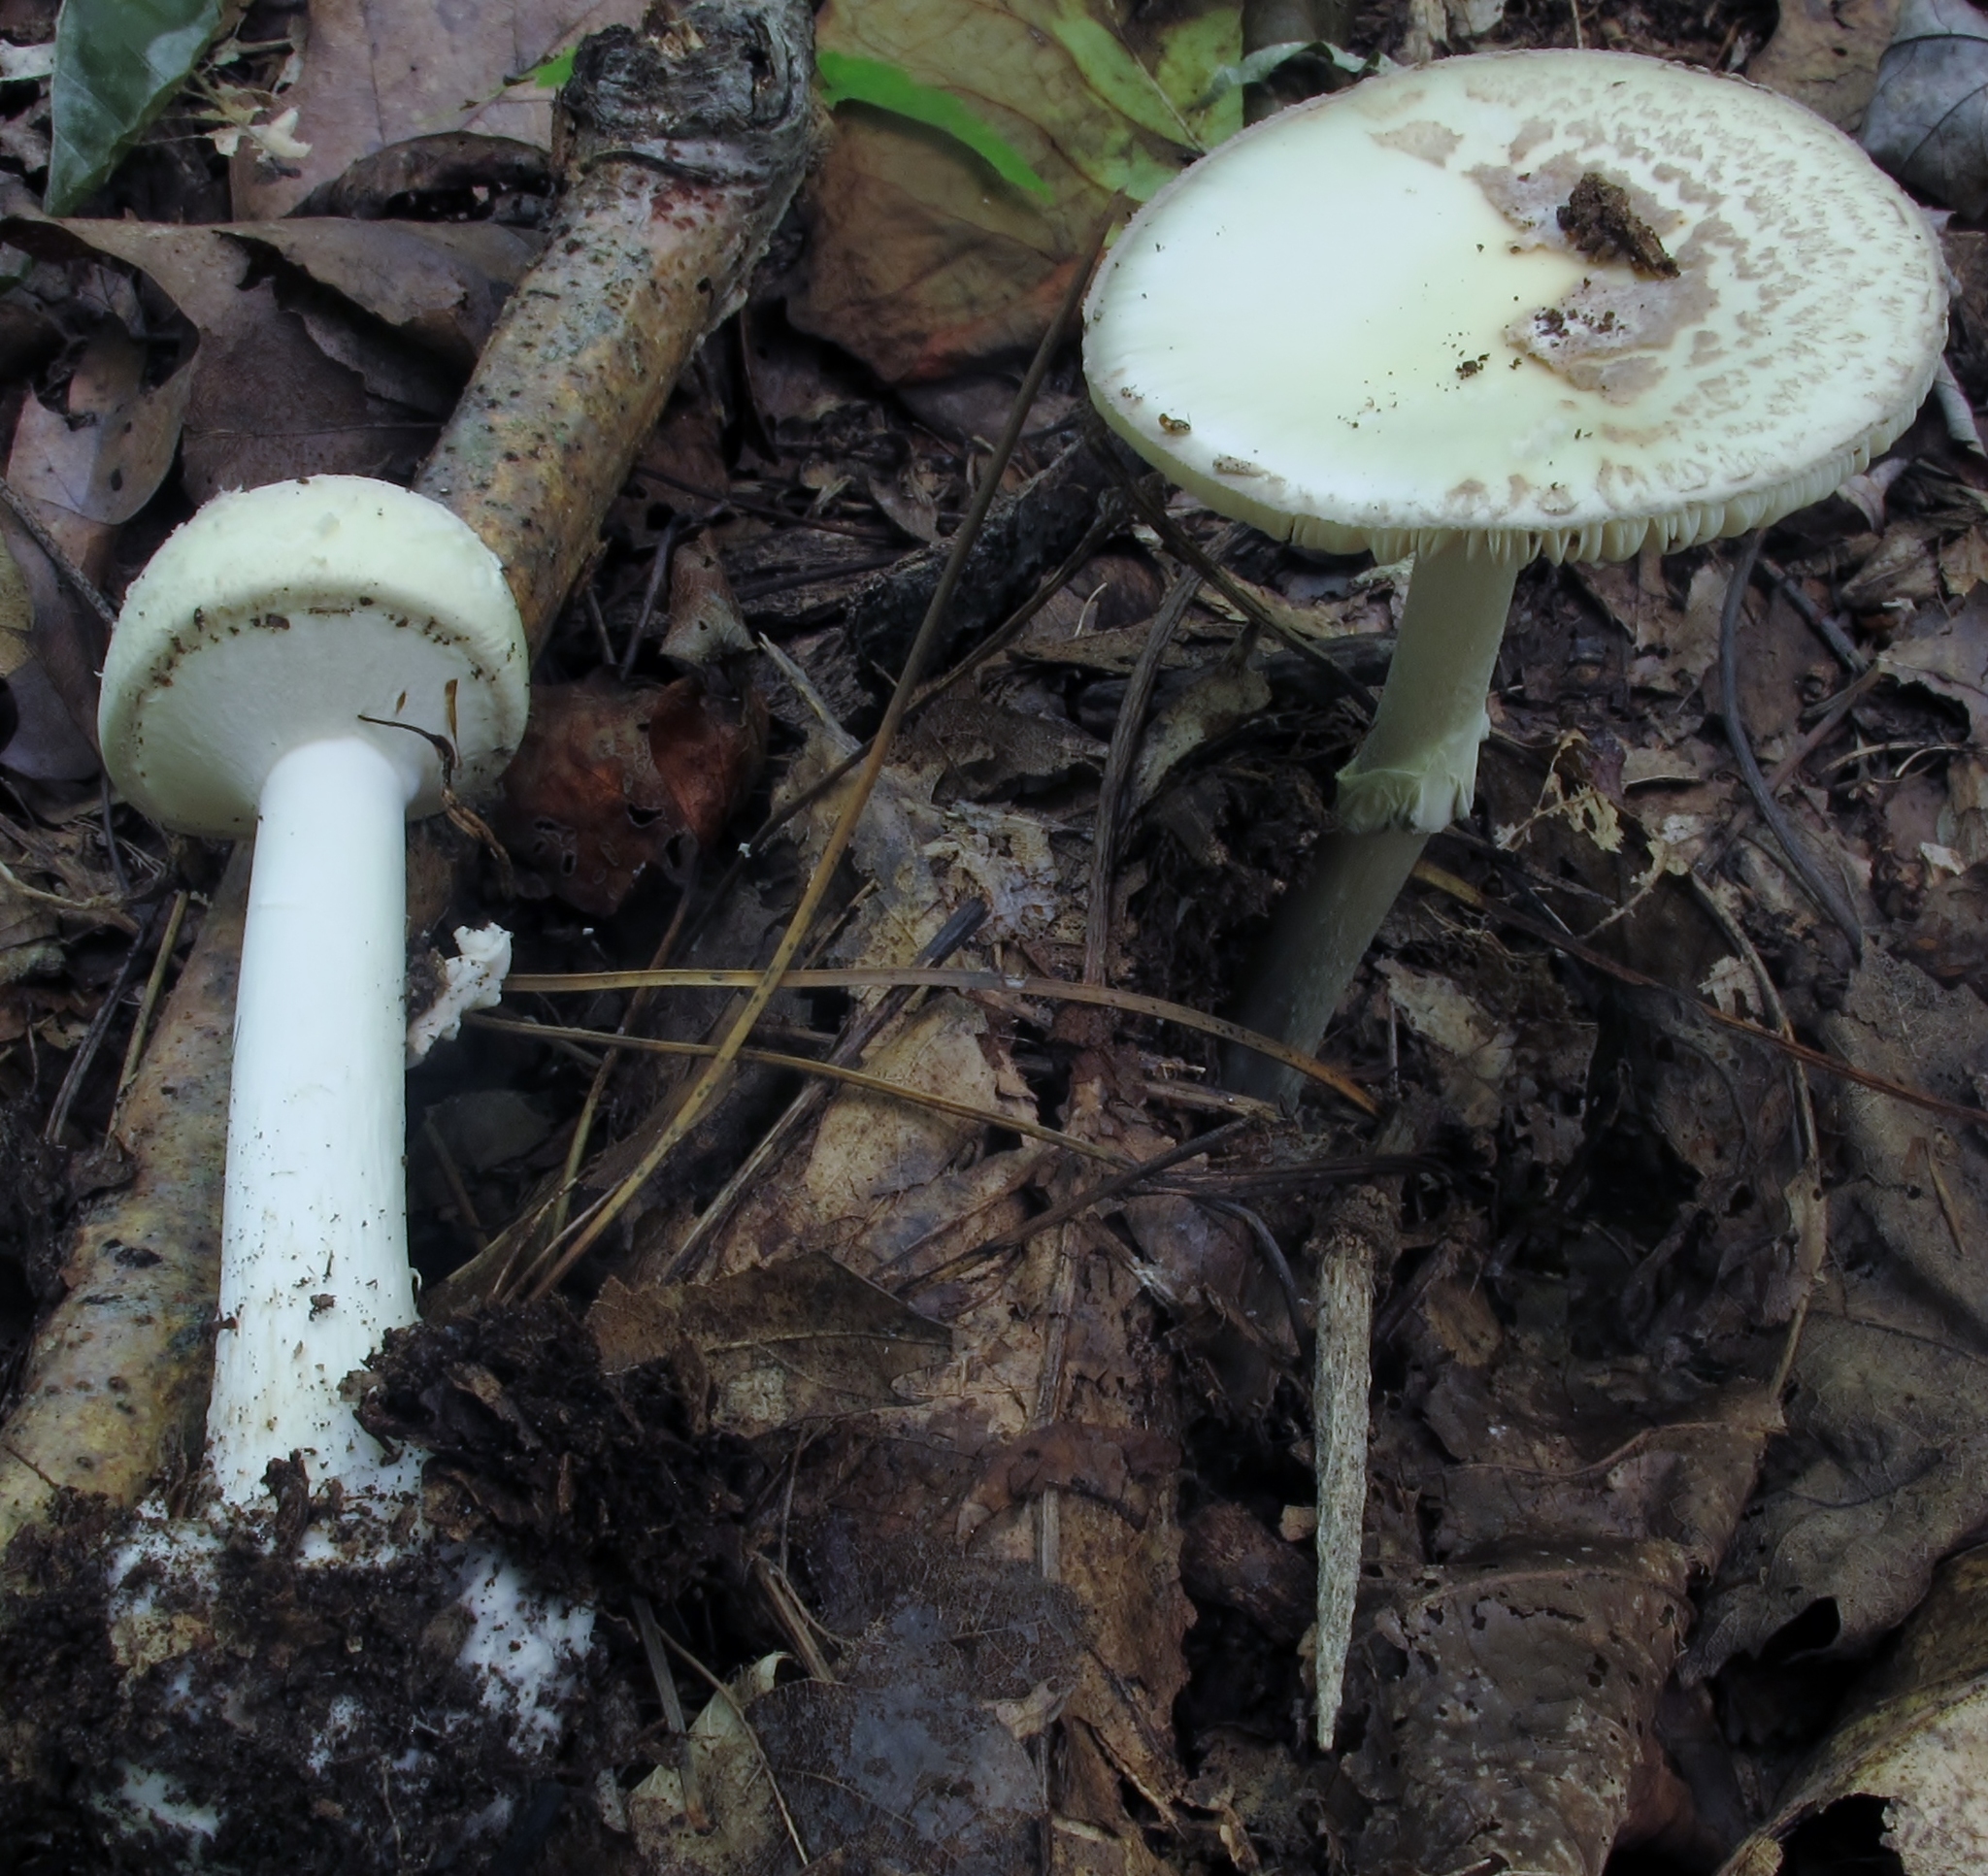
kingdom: Fungi
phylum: Basidiomycota
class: Agaricomycetes
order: Agaricales
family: Amanitaceae
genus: Amanita
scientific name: Amanita citrina
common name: False death-cap
